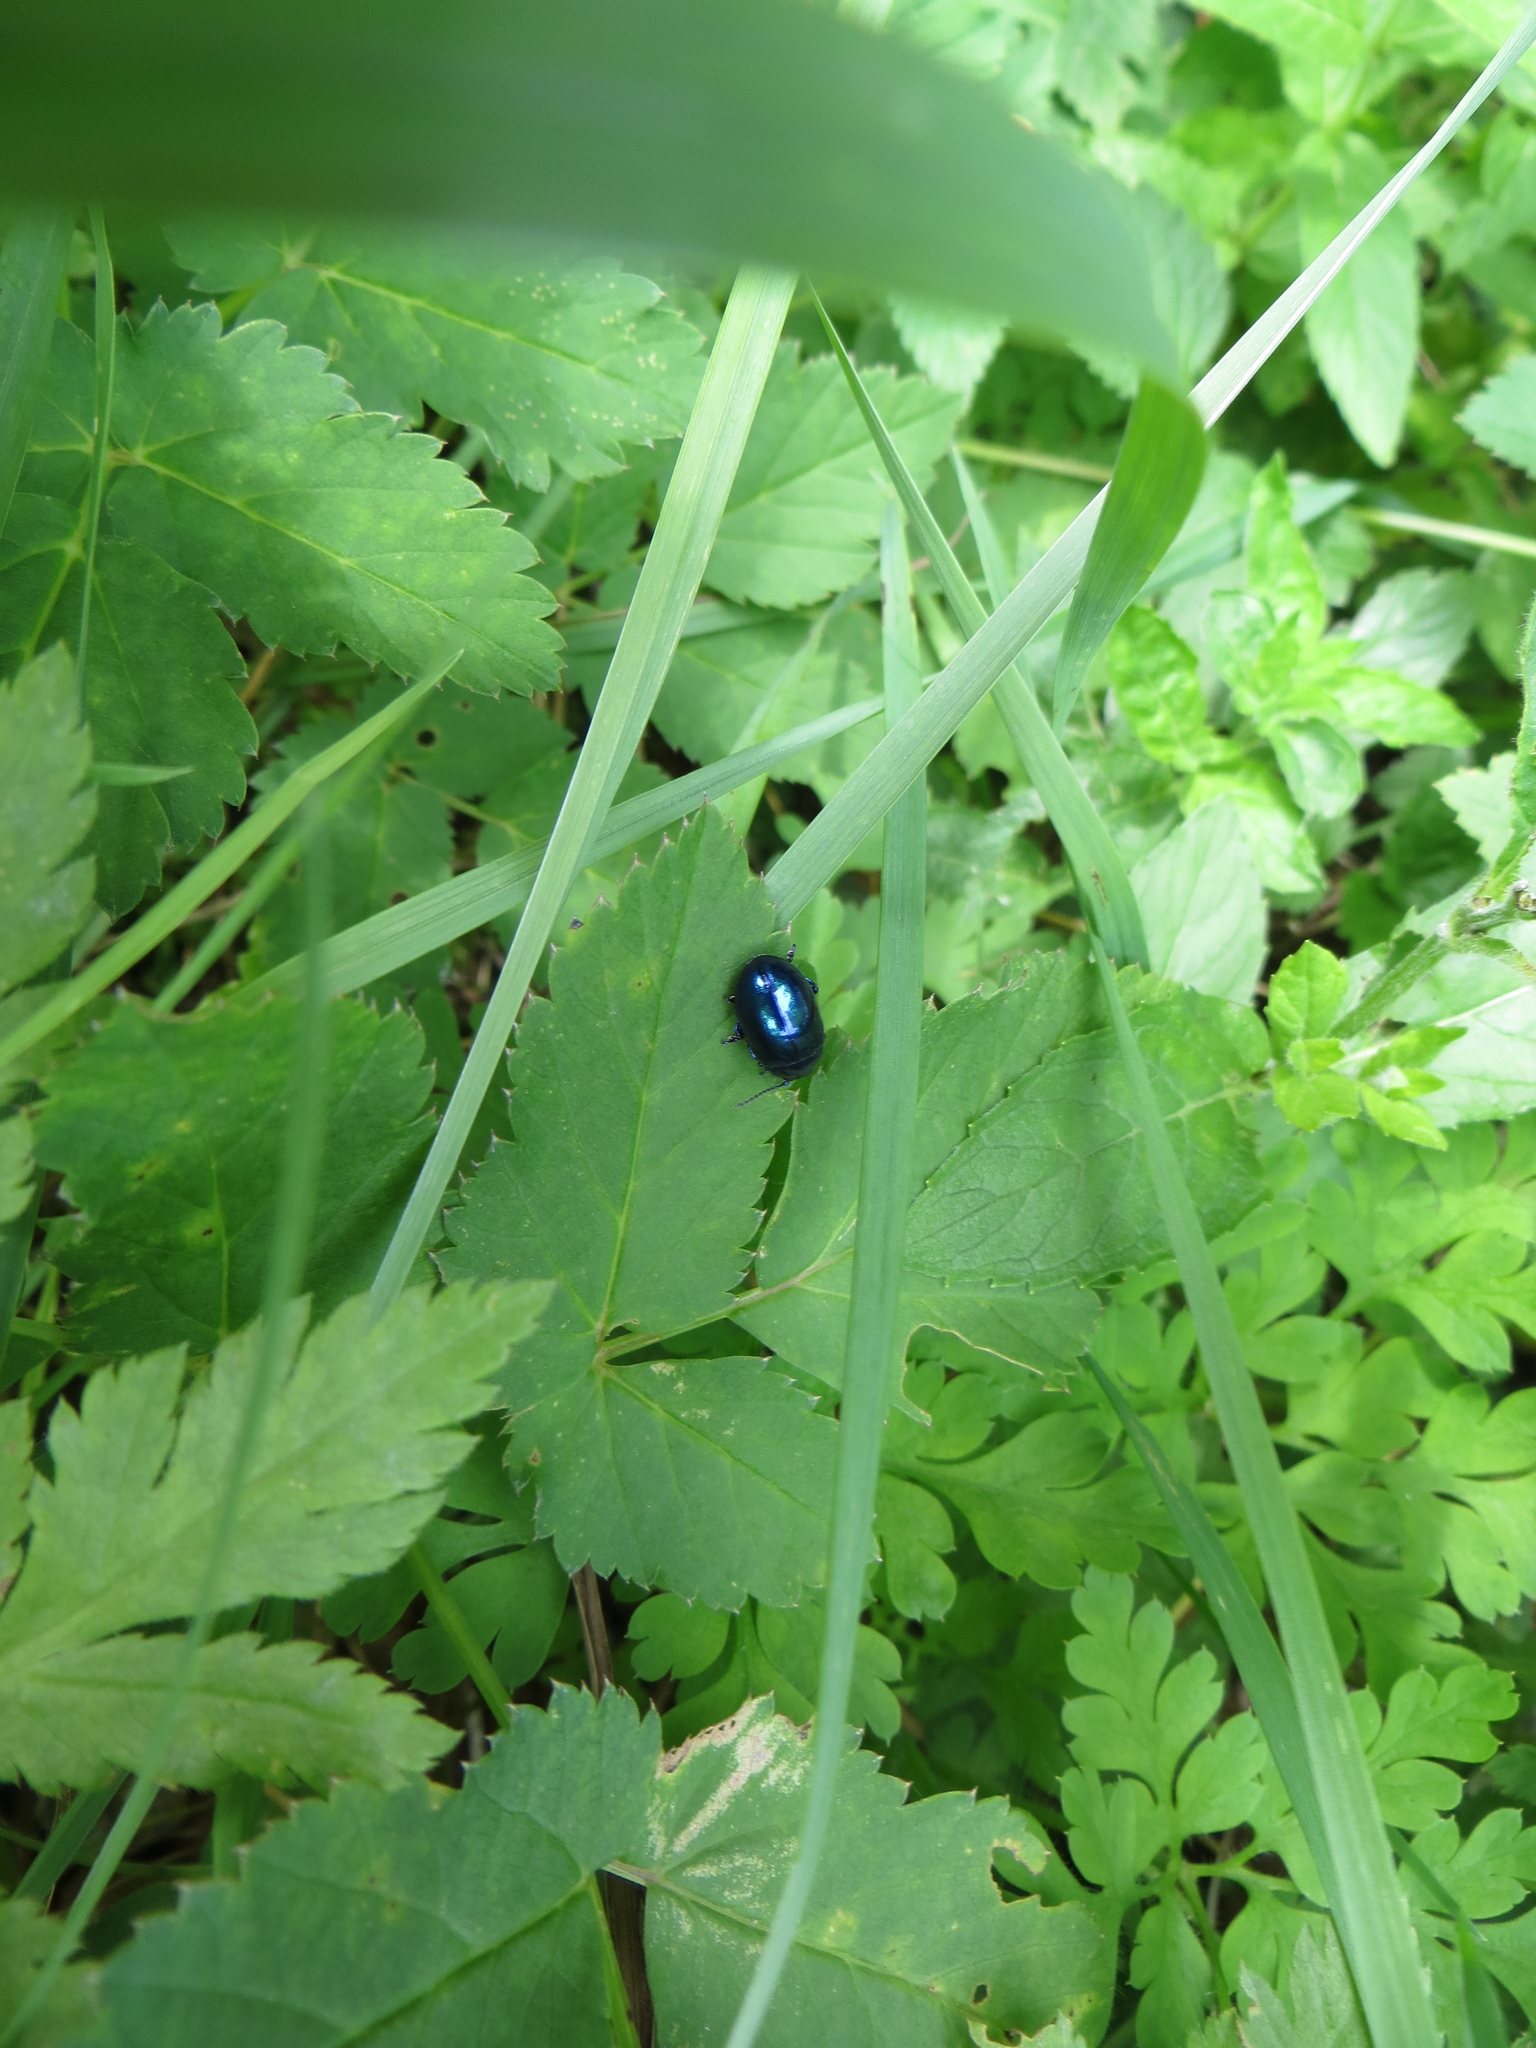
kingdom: Animalia
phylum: Arthropoda
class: Insecta
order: Coleoptera
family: Chrysomelidae
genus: Chrysolina
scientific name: Chrysolina coerulans
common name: Blue mint beetle
